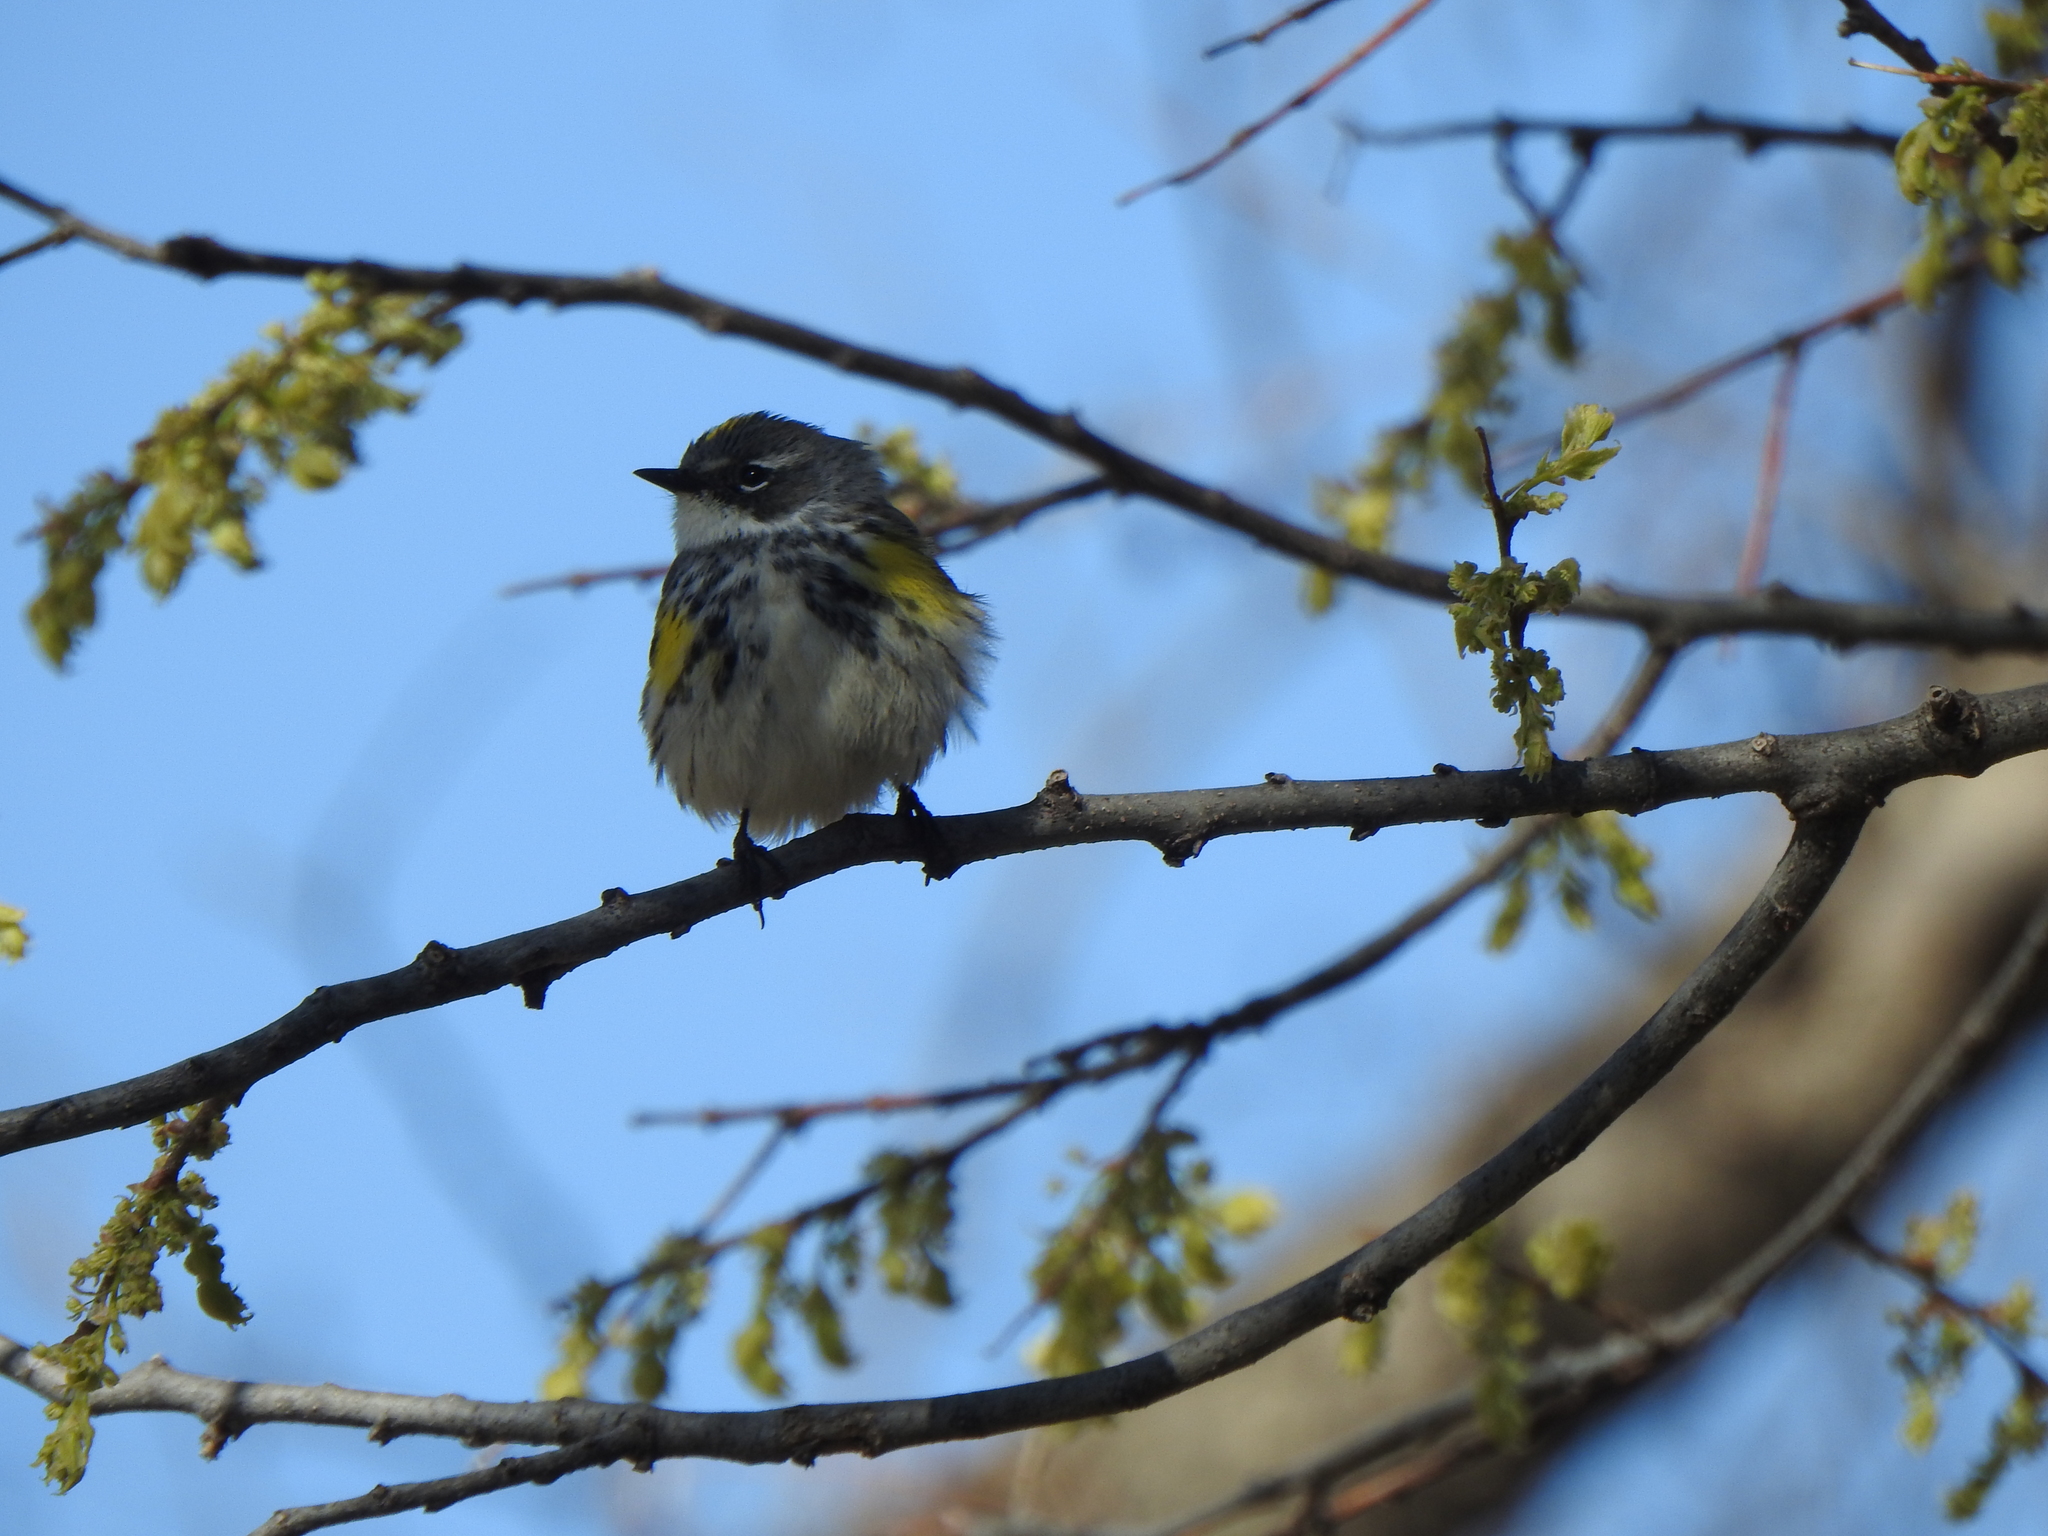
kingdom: Animalia
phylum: Chordata
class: Aves
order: Passeriformes
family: Parulidae
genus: Setophaga
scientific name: Setophaga coronata
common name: Myrtle warbler
